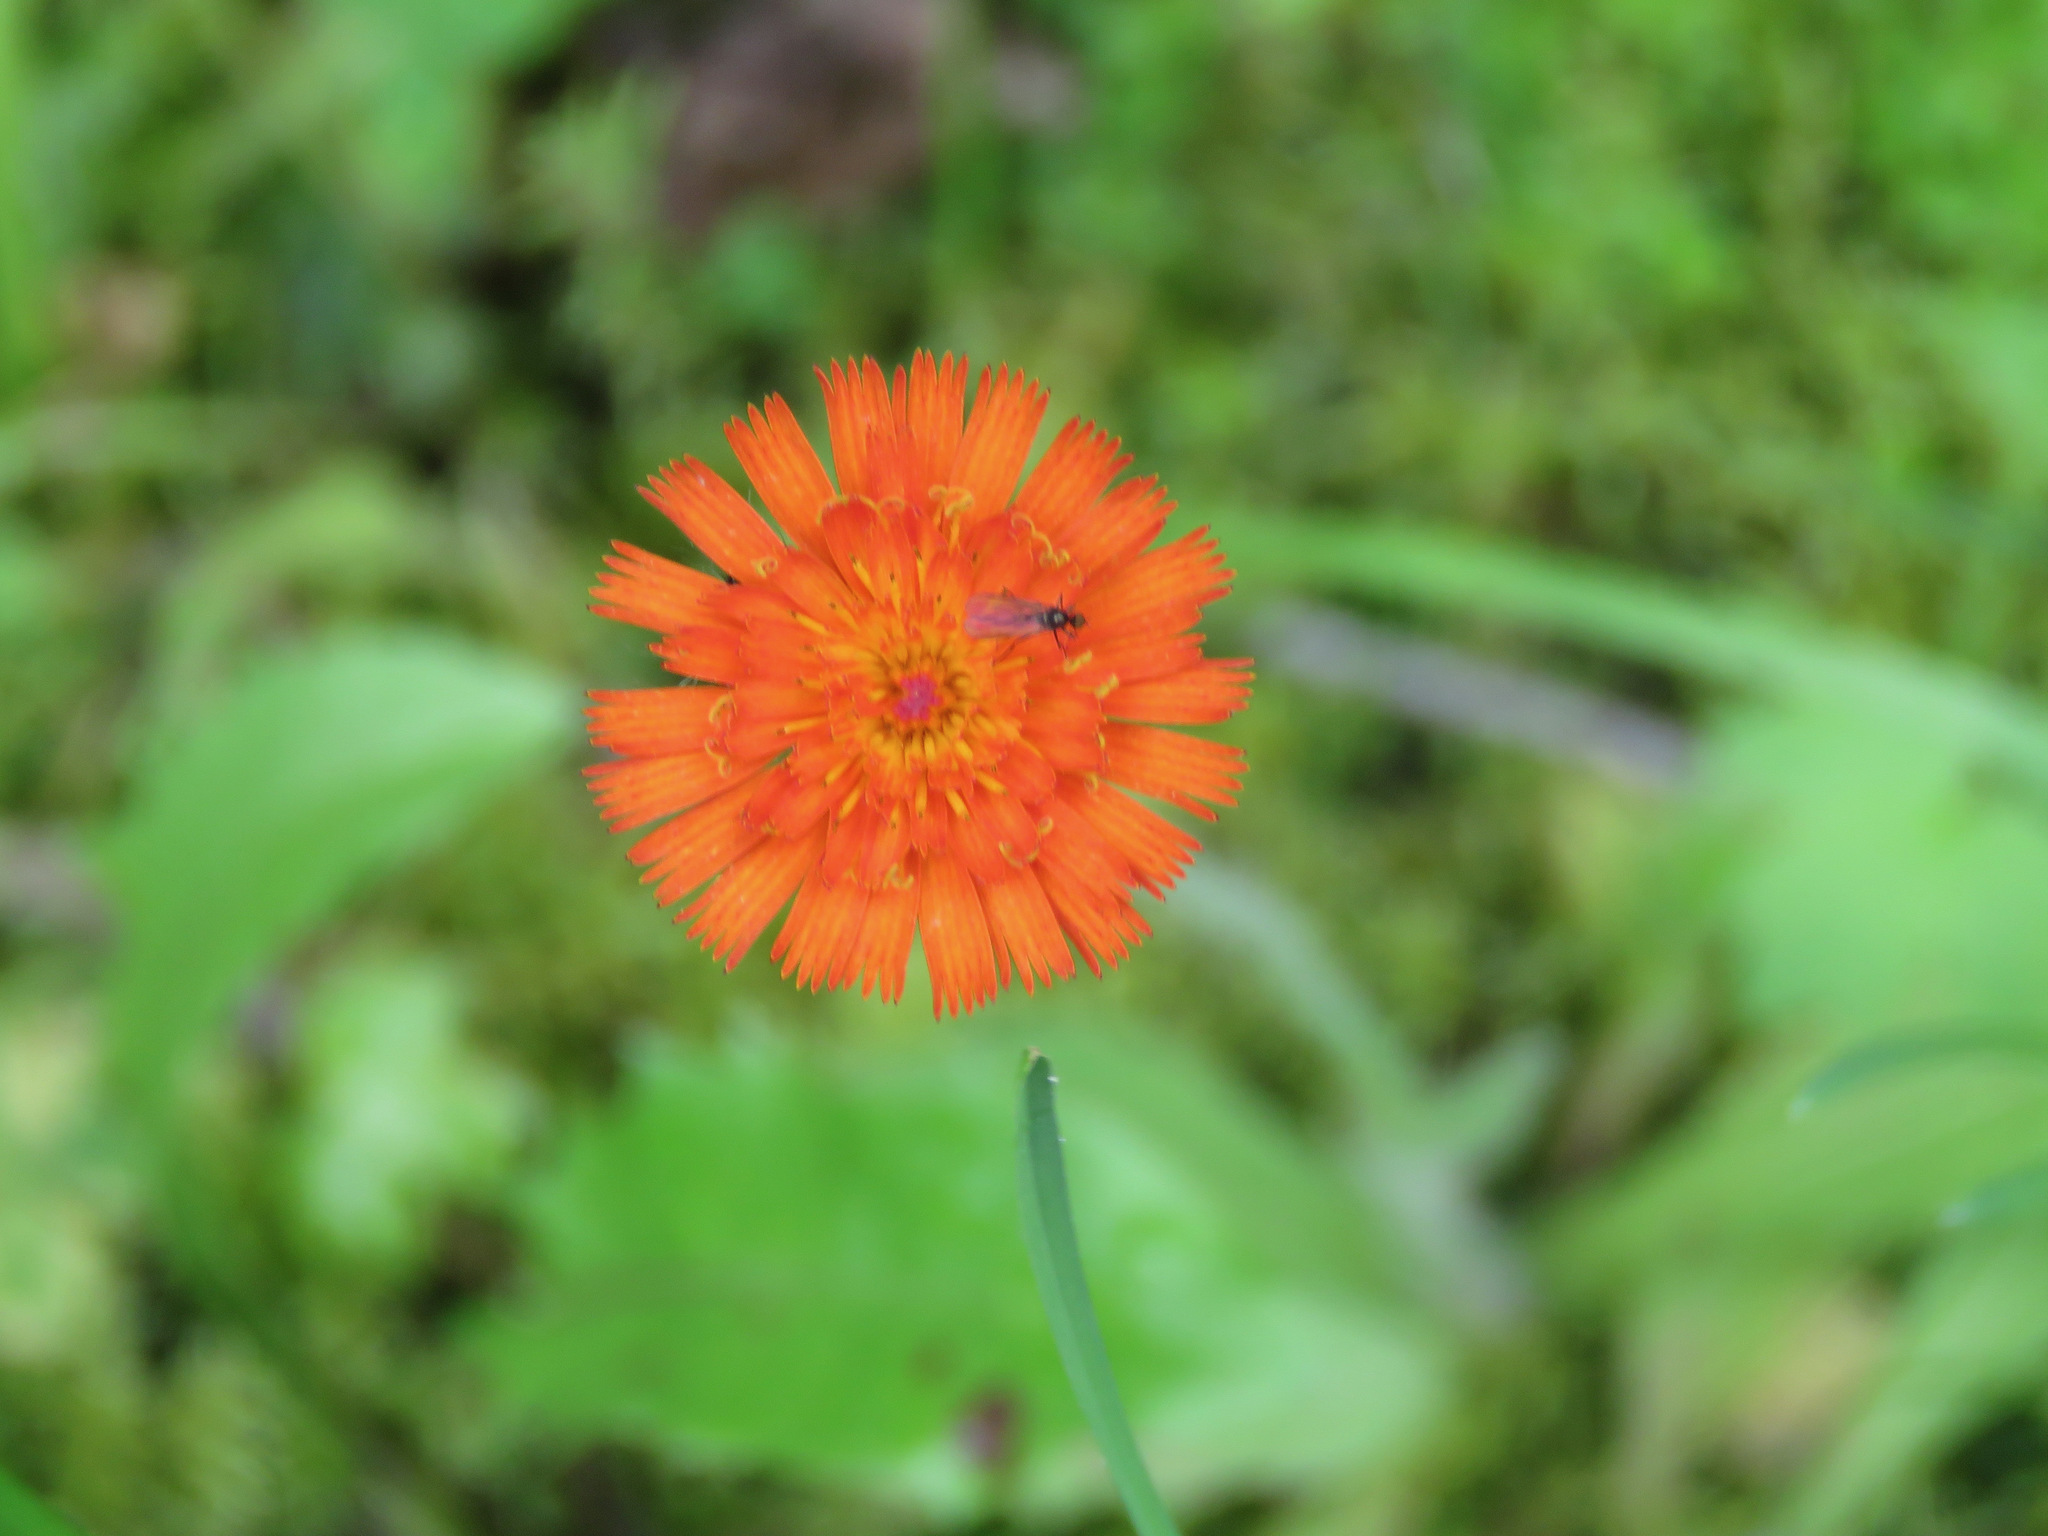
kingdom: Plantae
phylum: Tracheophyta
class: Magnoliopsida
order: Asterales
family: Asteraceae
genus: Pilosella
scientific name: Pilosella aurantiaca
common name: Fox-and-cubs
